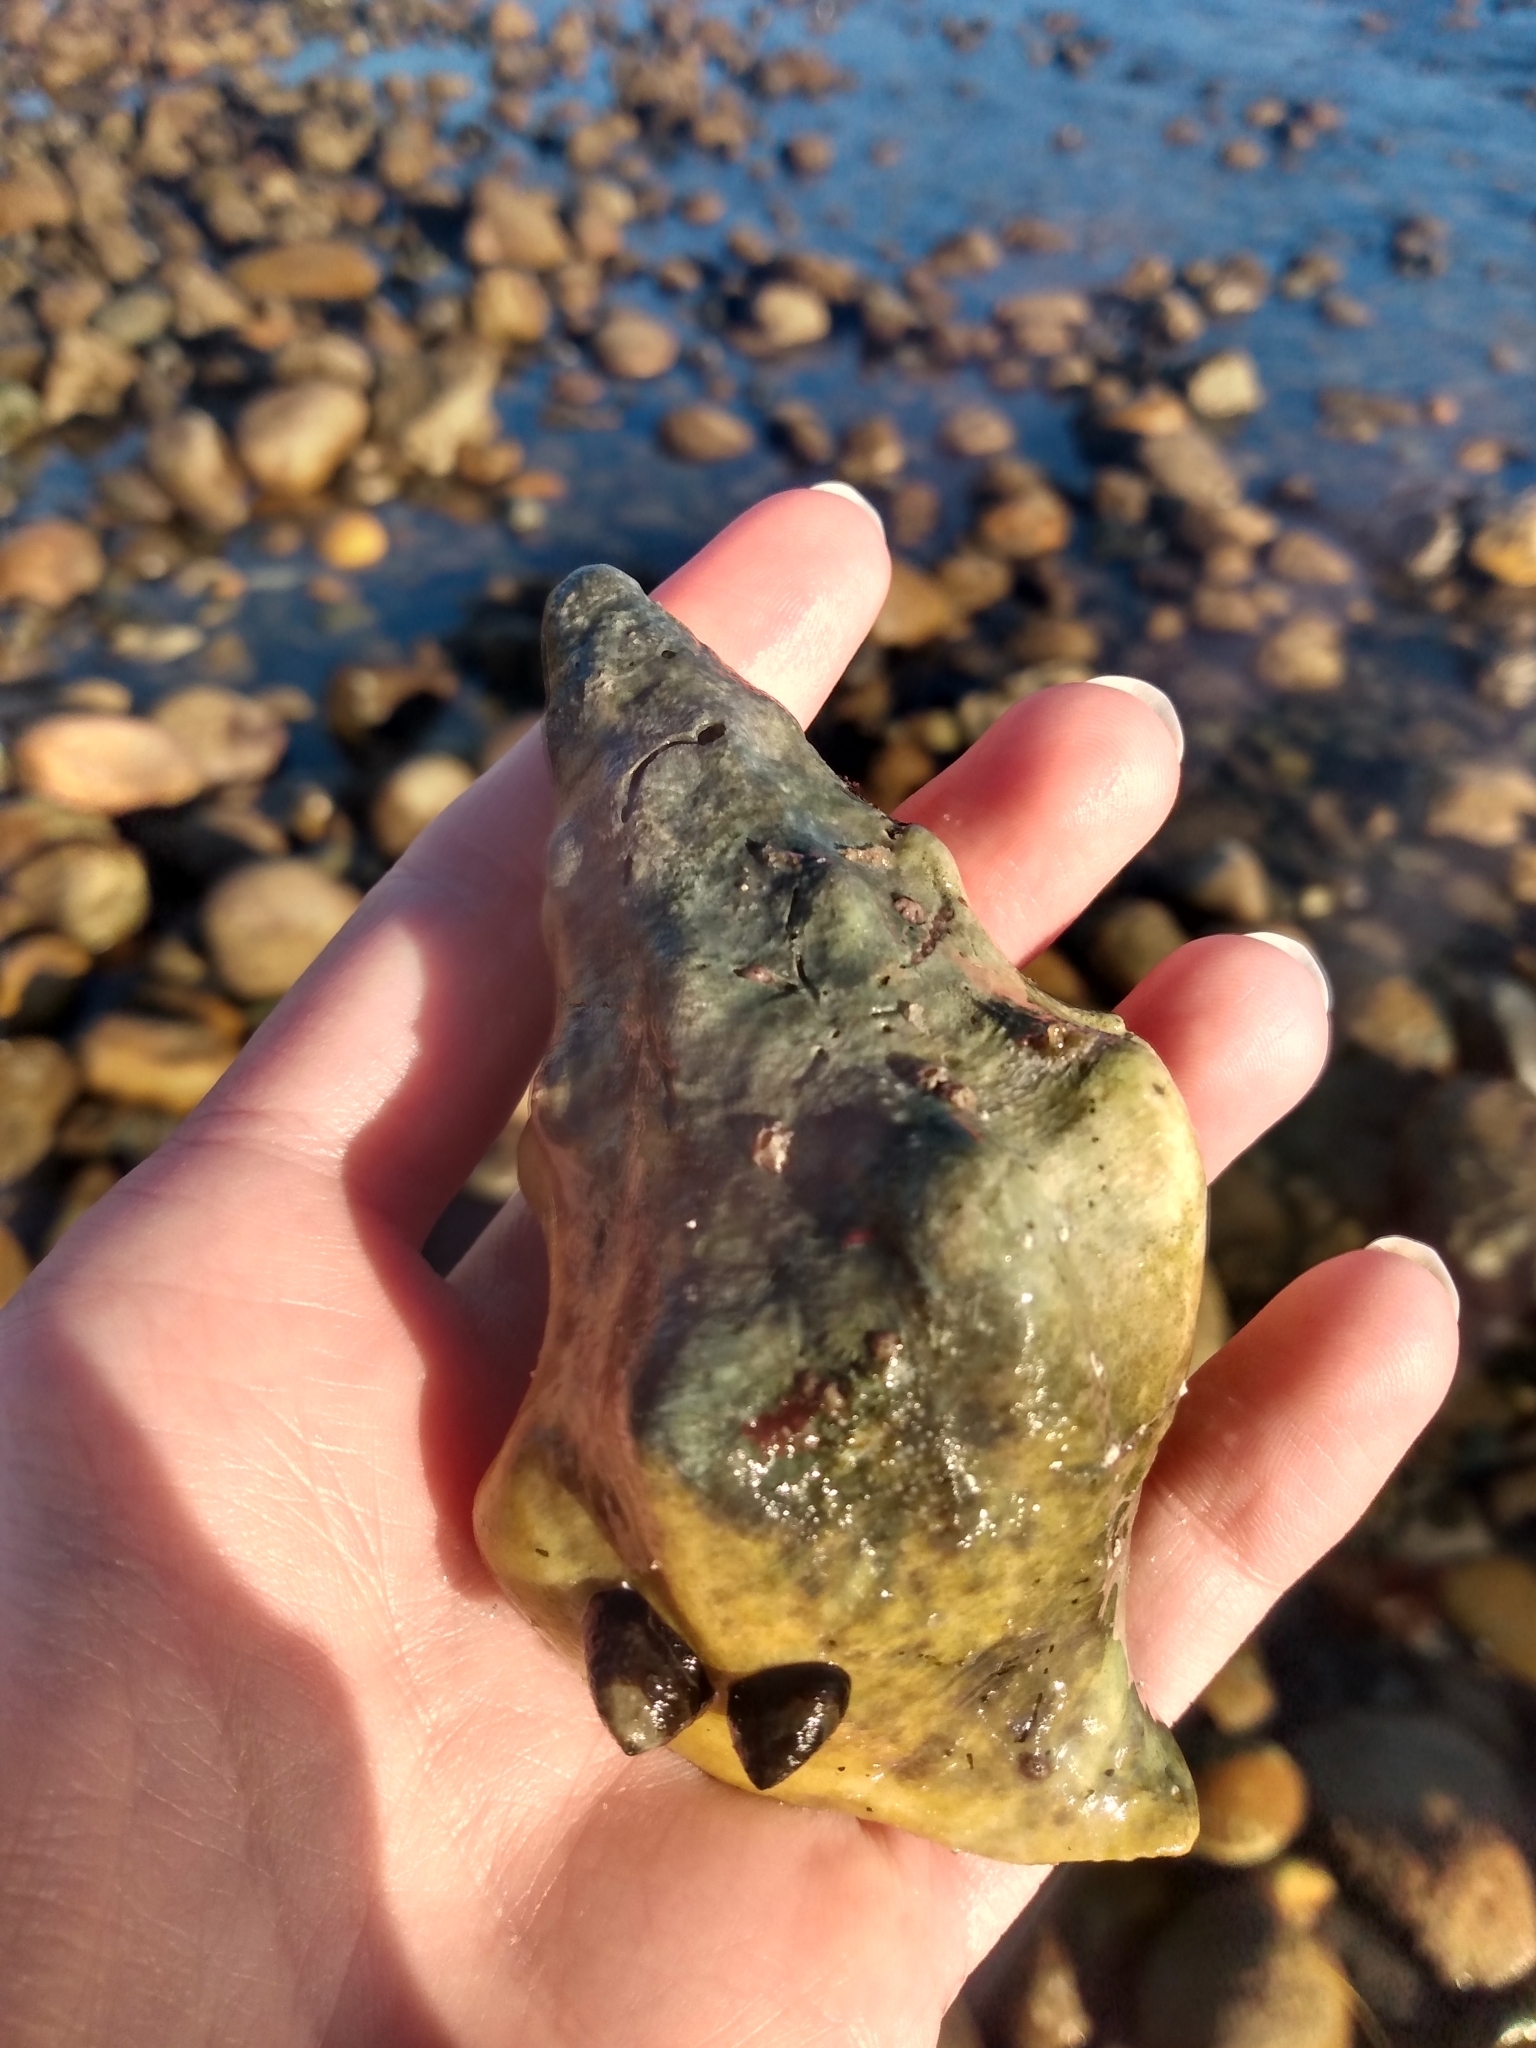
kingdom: Animalia
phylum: Mollusca
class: Gastropoda
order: Neogastropoda
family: Austrosiphonidae
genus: Kelletia
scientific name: Kelletia kelletii
